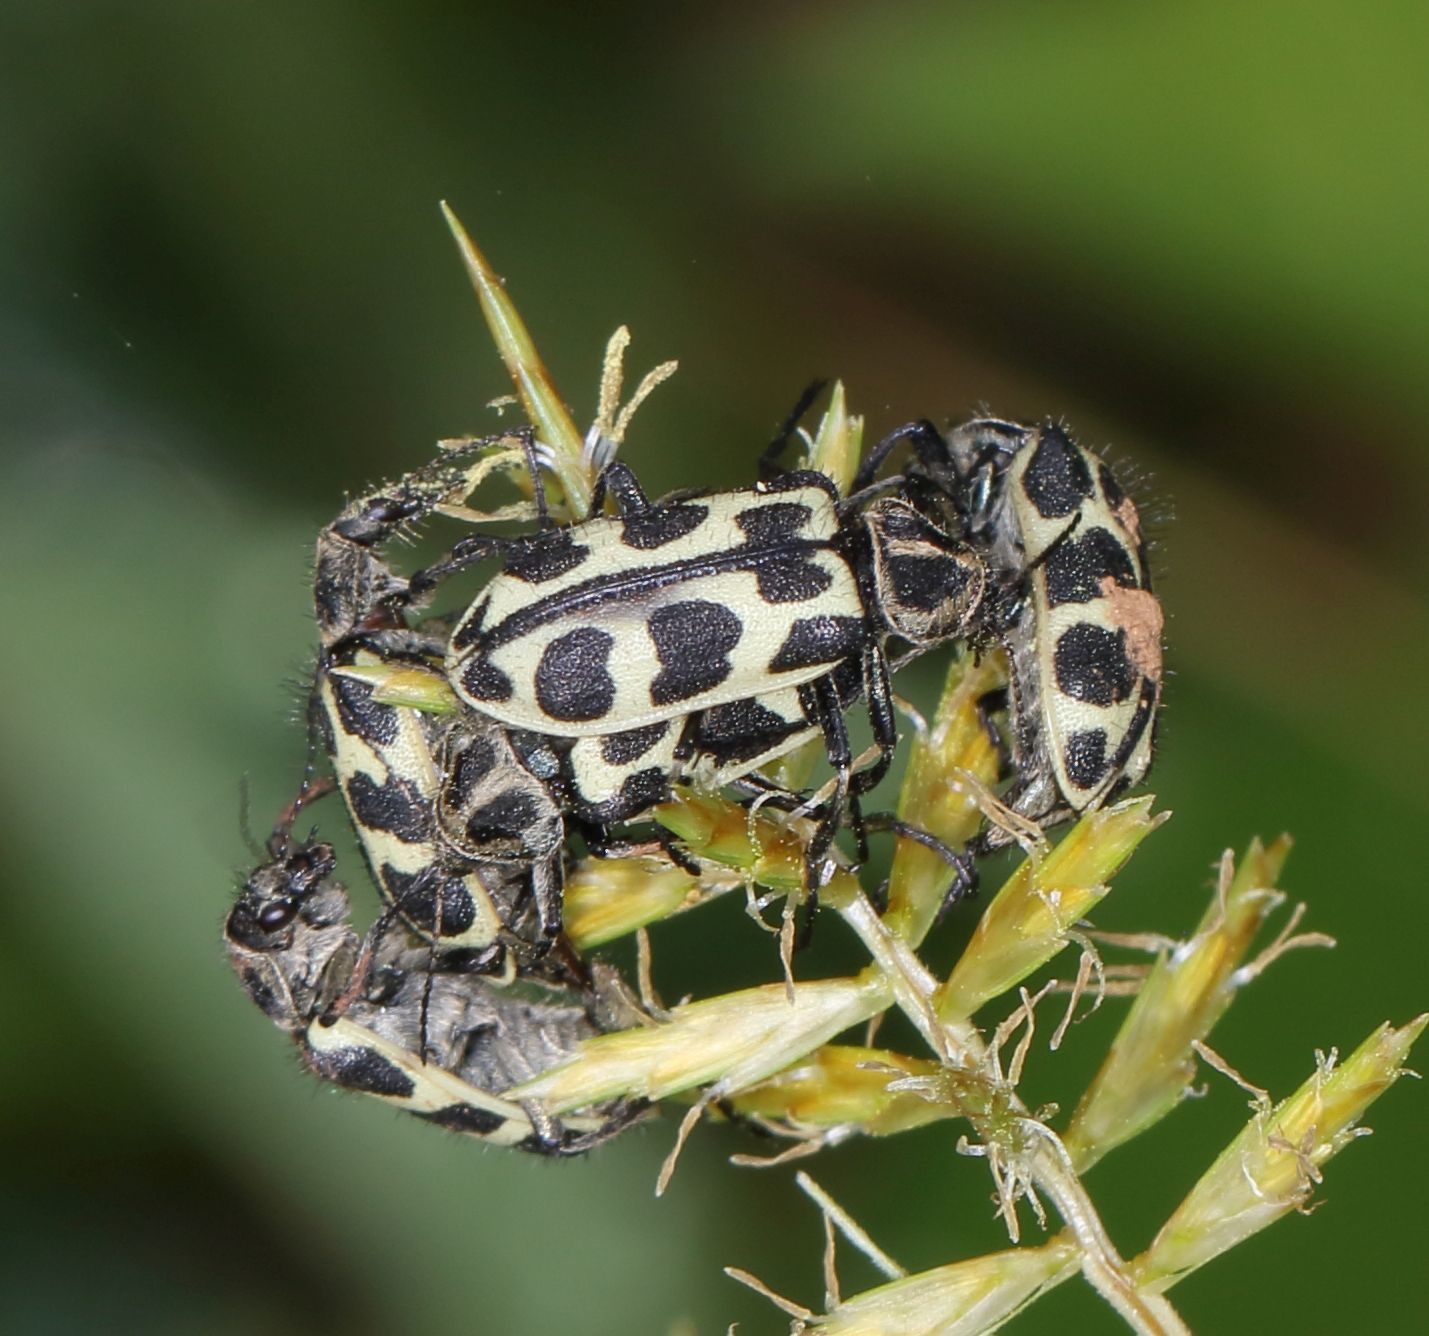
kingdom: Animalia
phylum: Arthropoda
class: Insecta
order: Coleoptera
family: Melyridae
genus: Astylus
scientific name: Astylus atromaculatus
